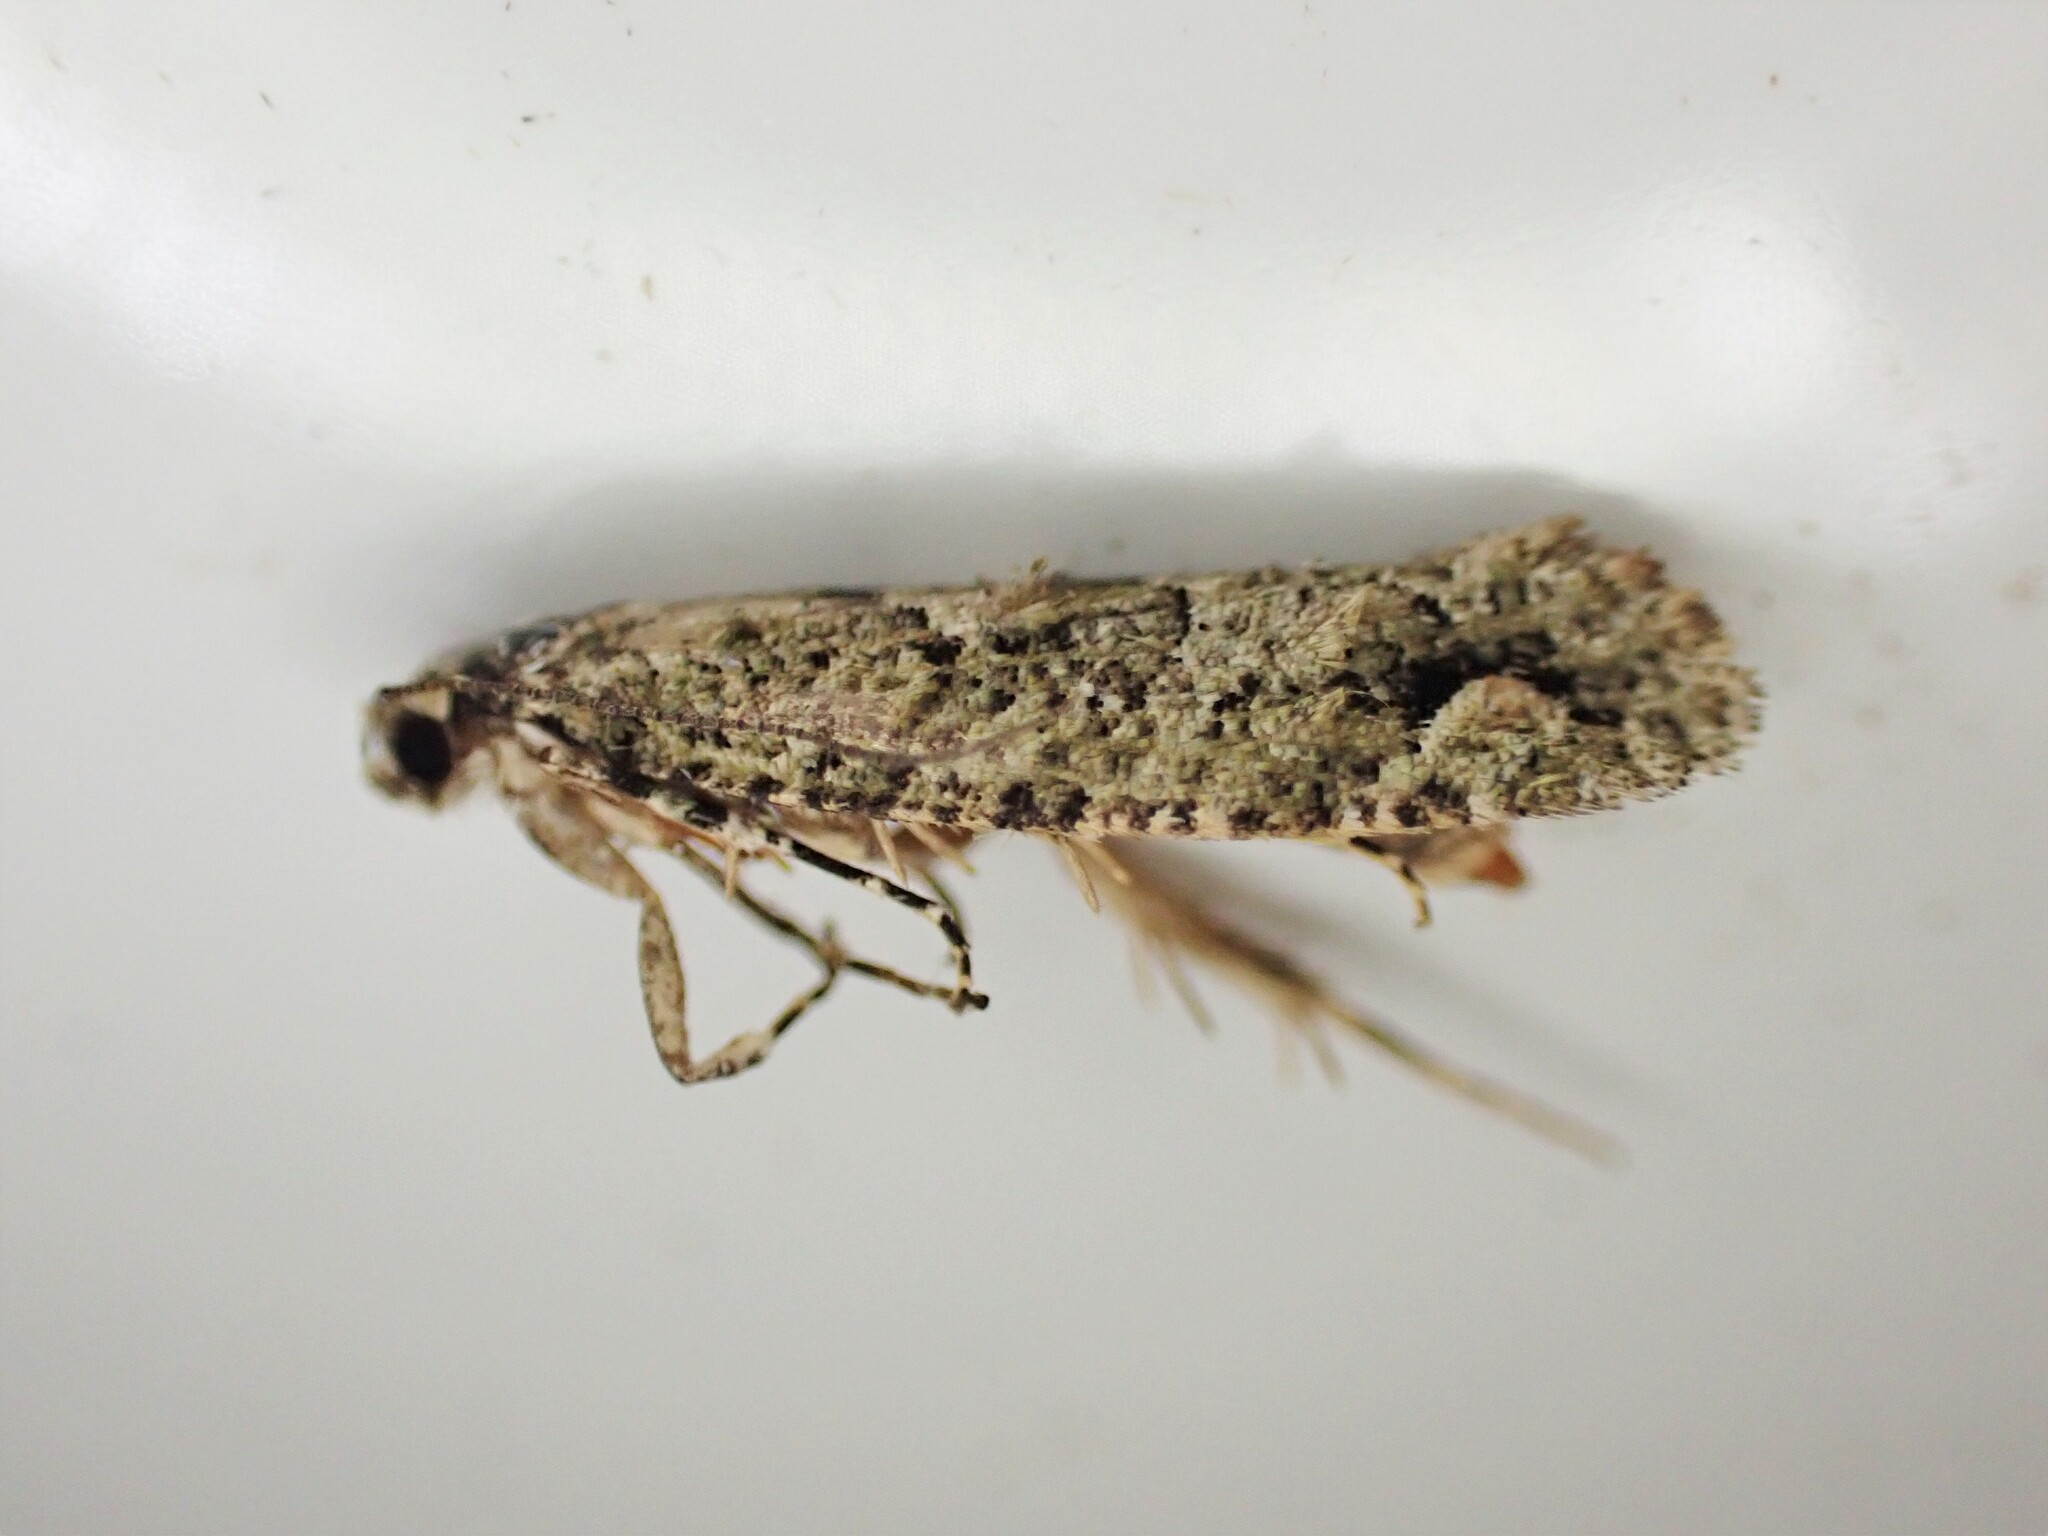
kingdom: Animalia
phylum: Arthropoda
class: Insecta
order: Lepidoptera
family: Tineidae
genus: Lysiphragma
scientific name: Lysiphragma howesii
